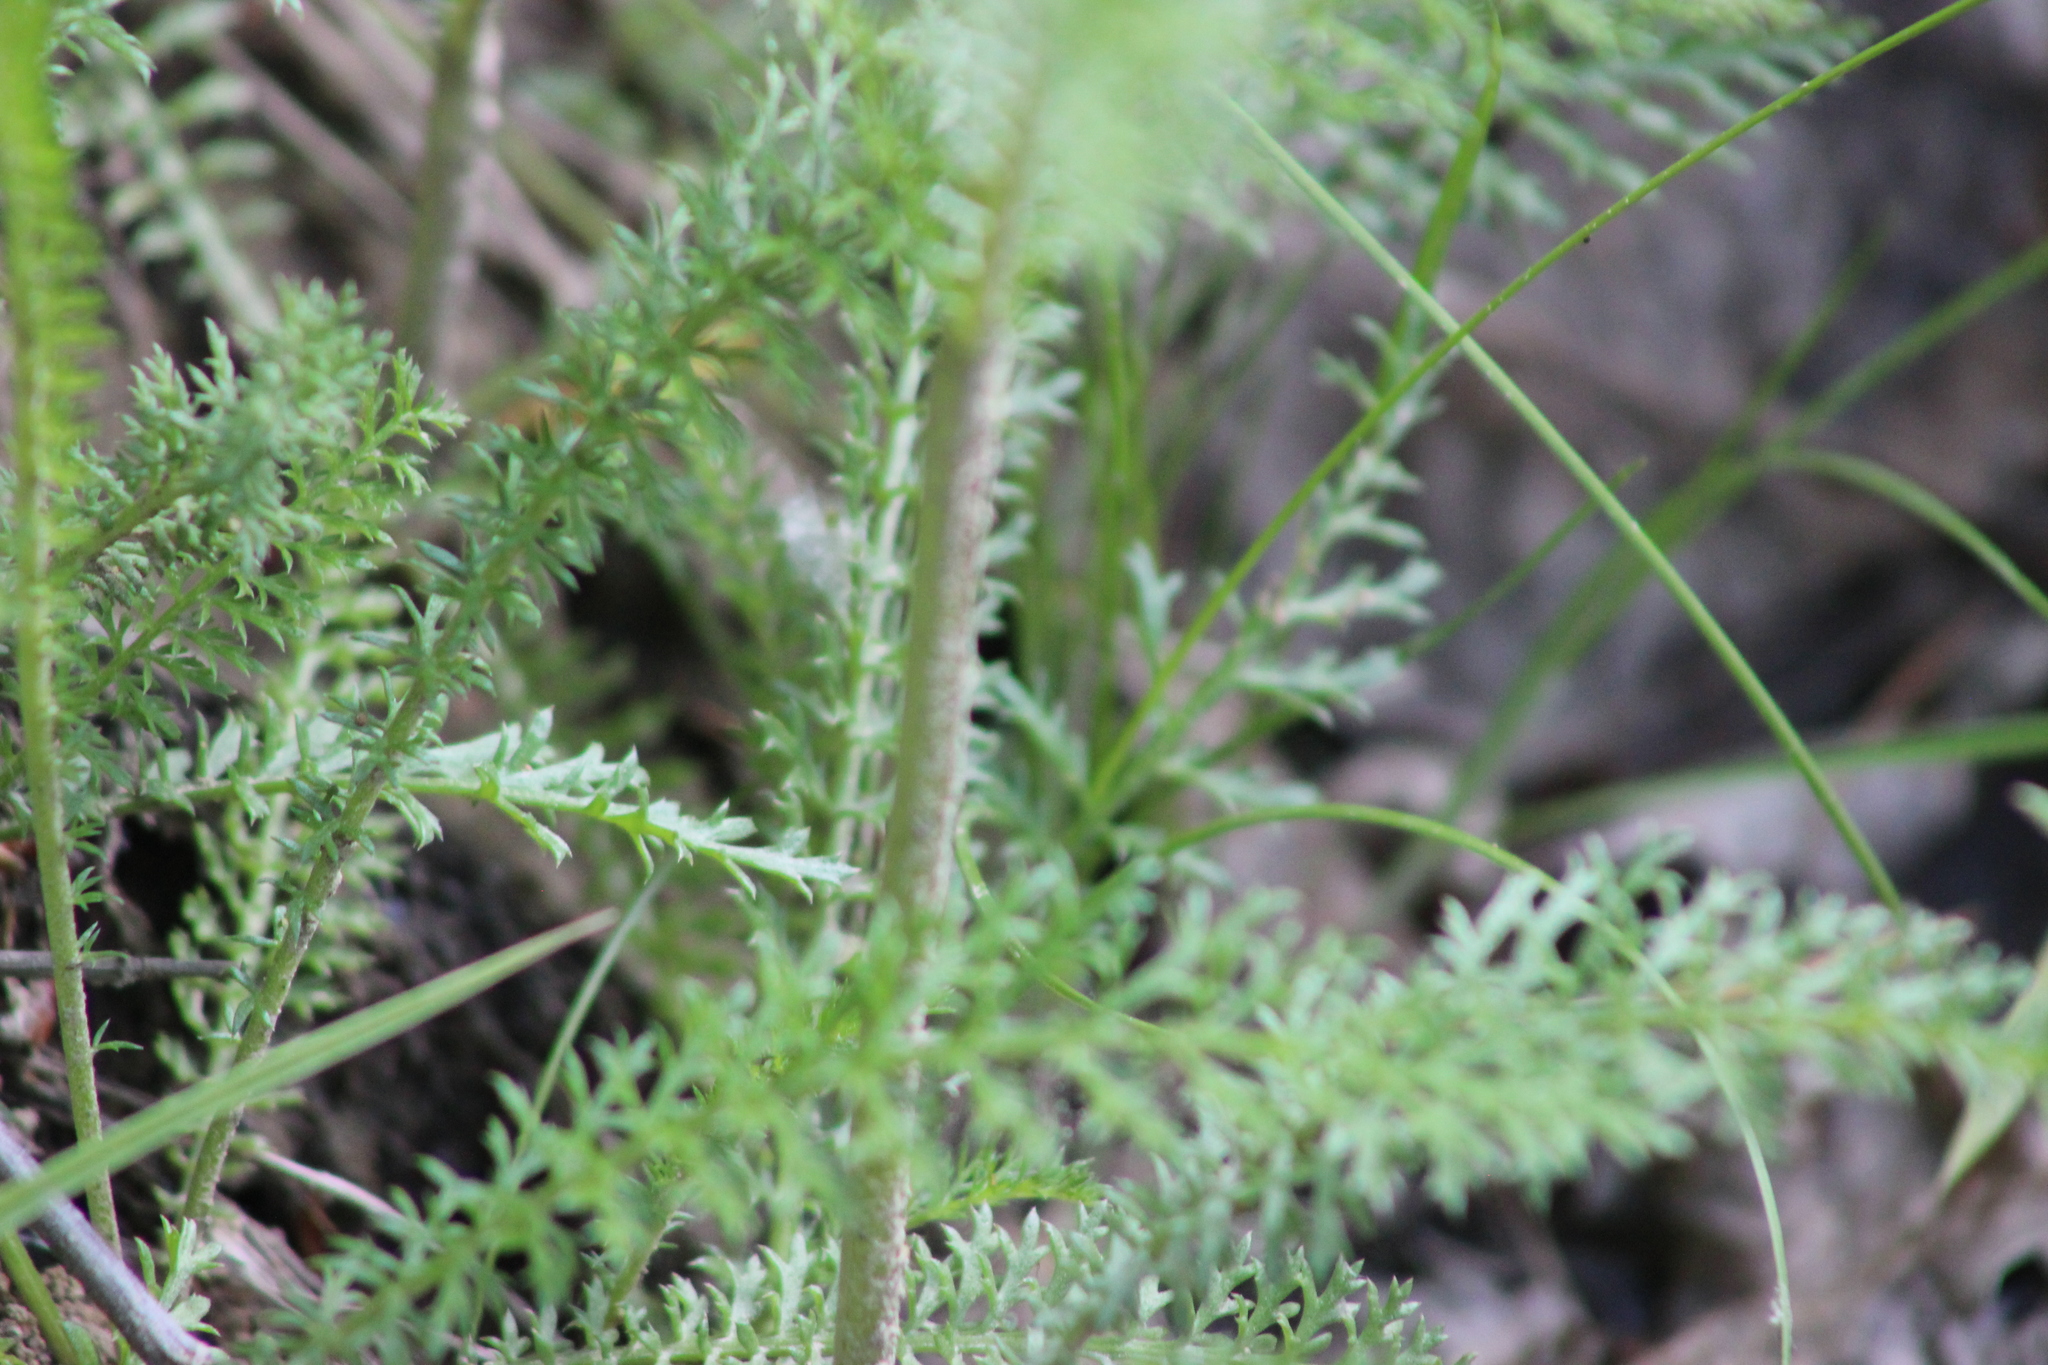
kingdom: Plantae
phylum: Tracheophyta
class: Magnoliopsida
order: Asterales
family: Asteraceae
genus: Achillea
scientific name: Achillea millefolium
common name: Yarrow
